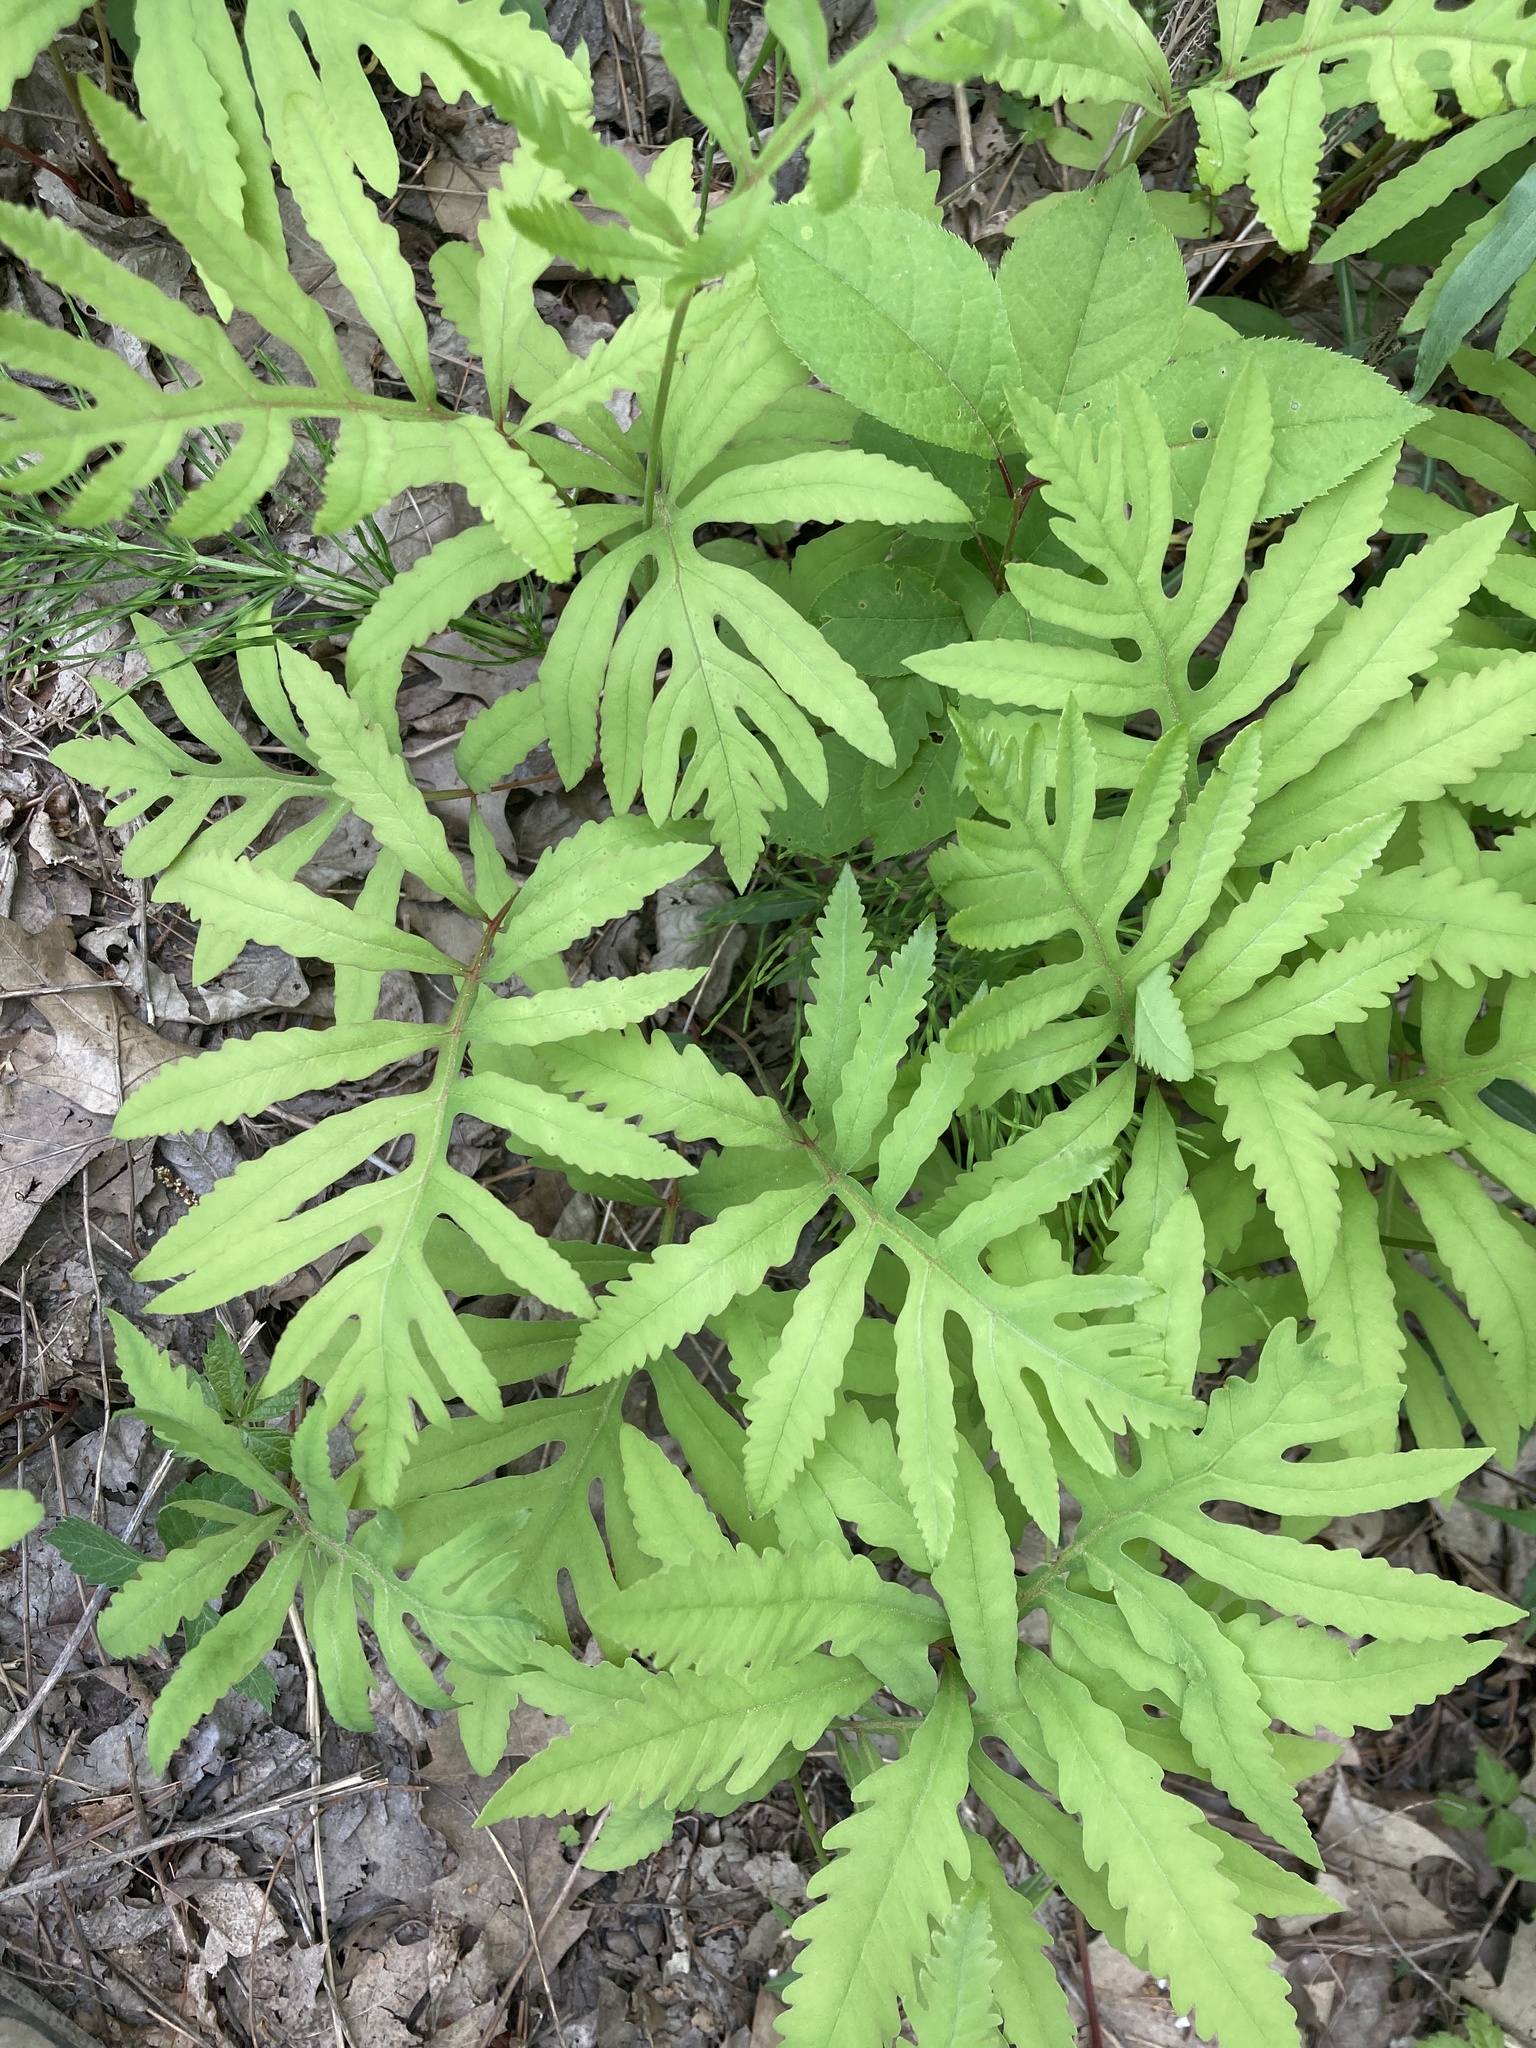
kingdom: Plantae
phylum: Tracheophyta
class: Polypodiopsida
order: Polypodiales
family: Onocleaceae
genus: Onoclea
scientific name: Onoclea sensibilis
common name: Sensitive fern
